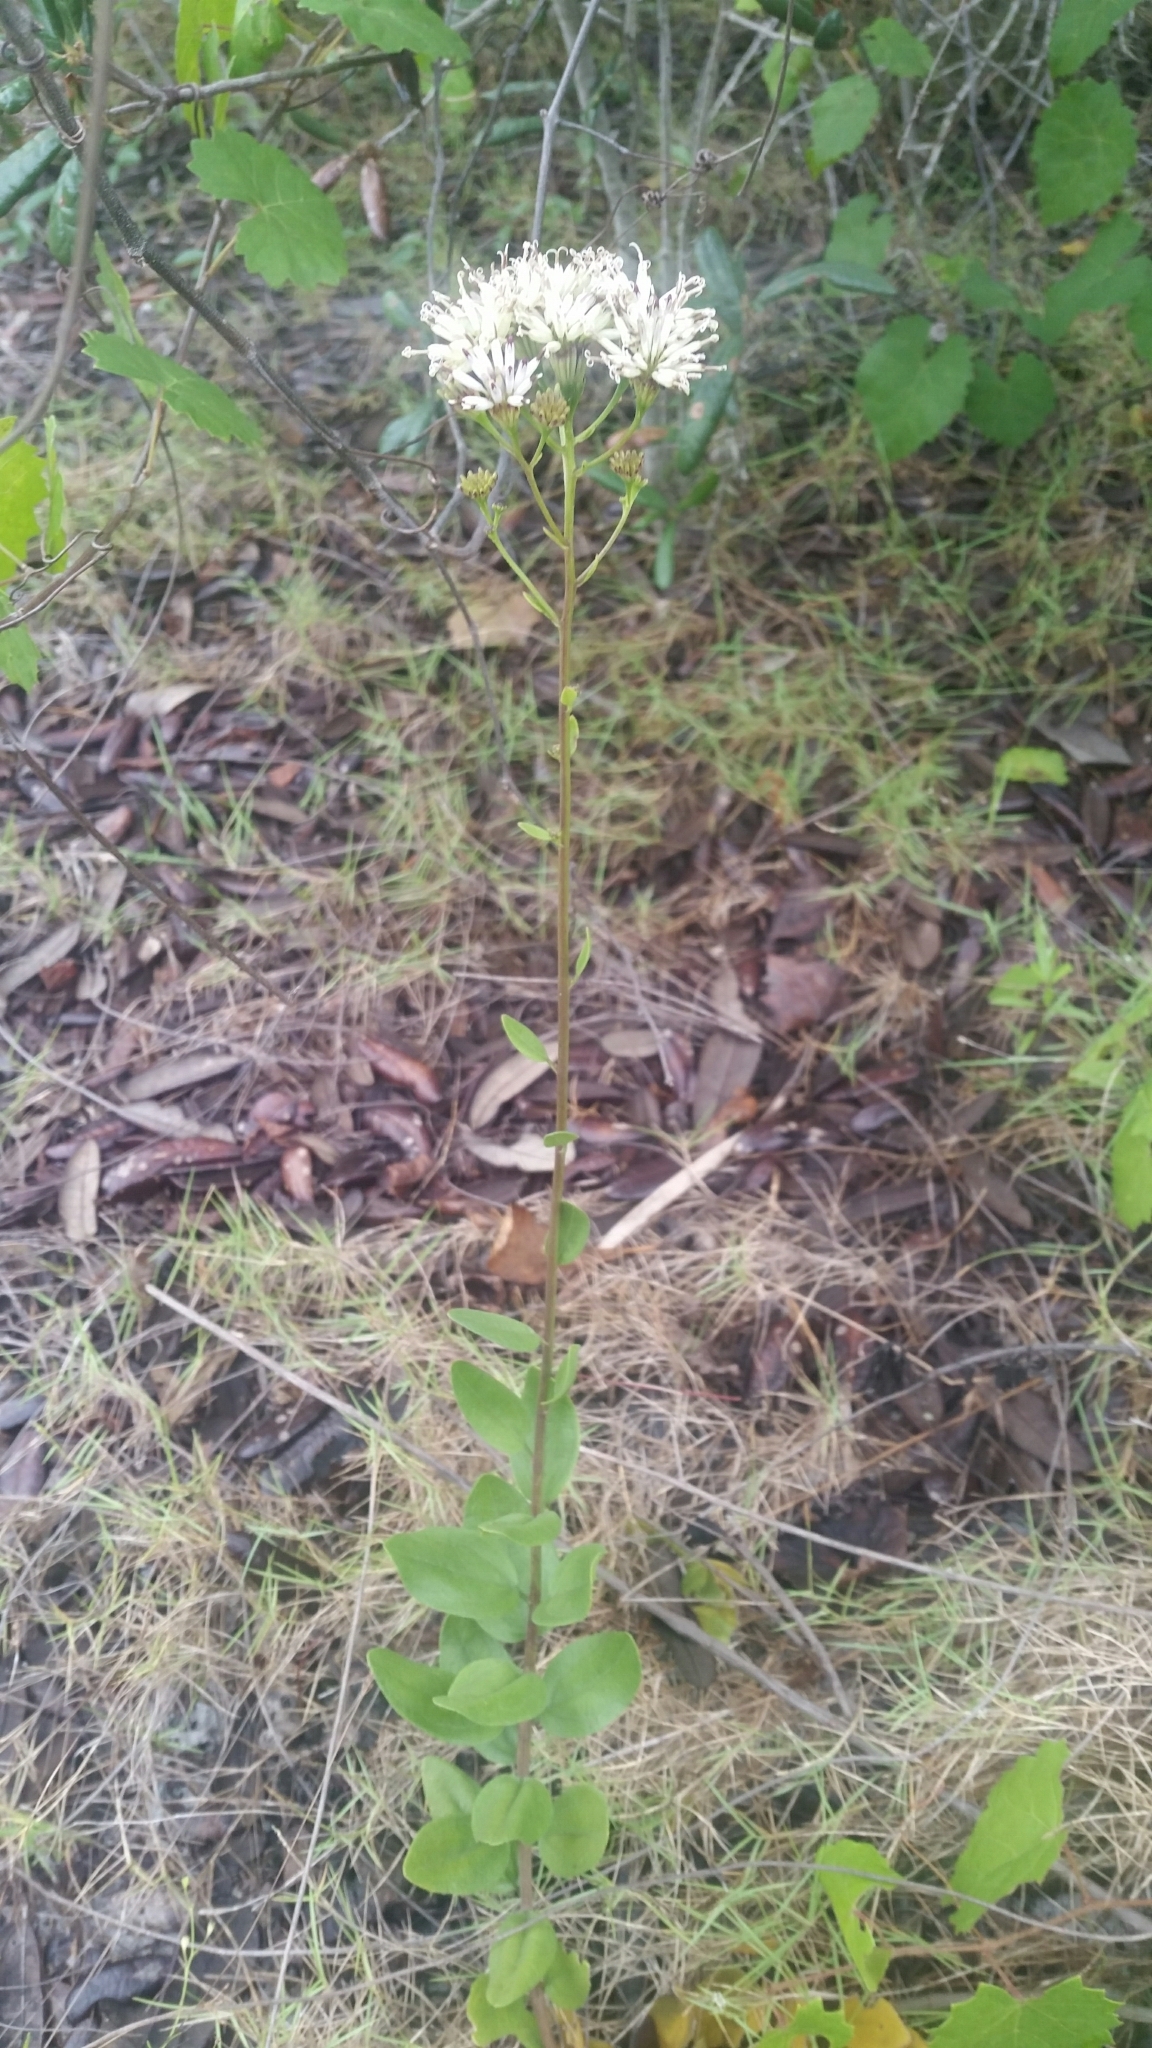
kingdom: Plantae
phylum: Tracheophyta
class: Magnoliopsida
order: Asterales
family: Asteraceae
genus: Palafoxia
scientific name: Palafoxia feayi
